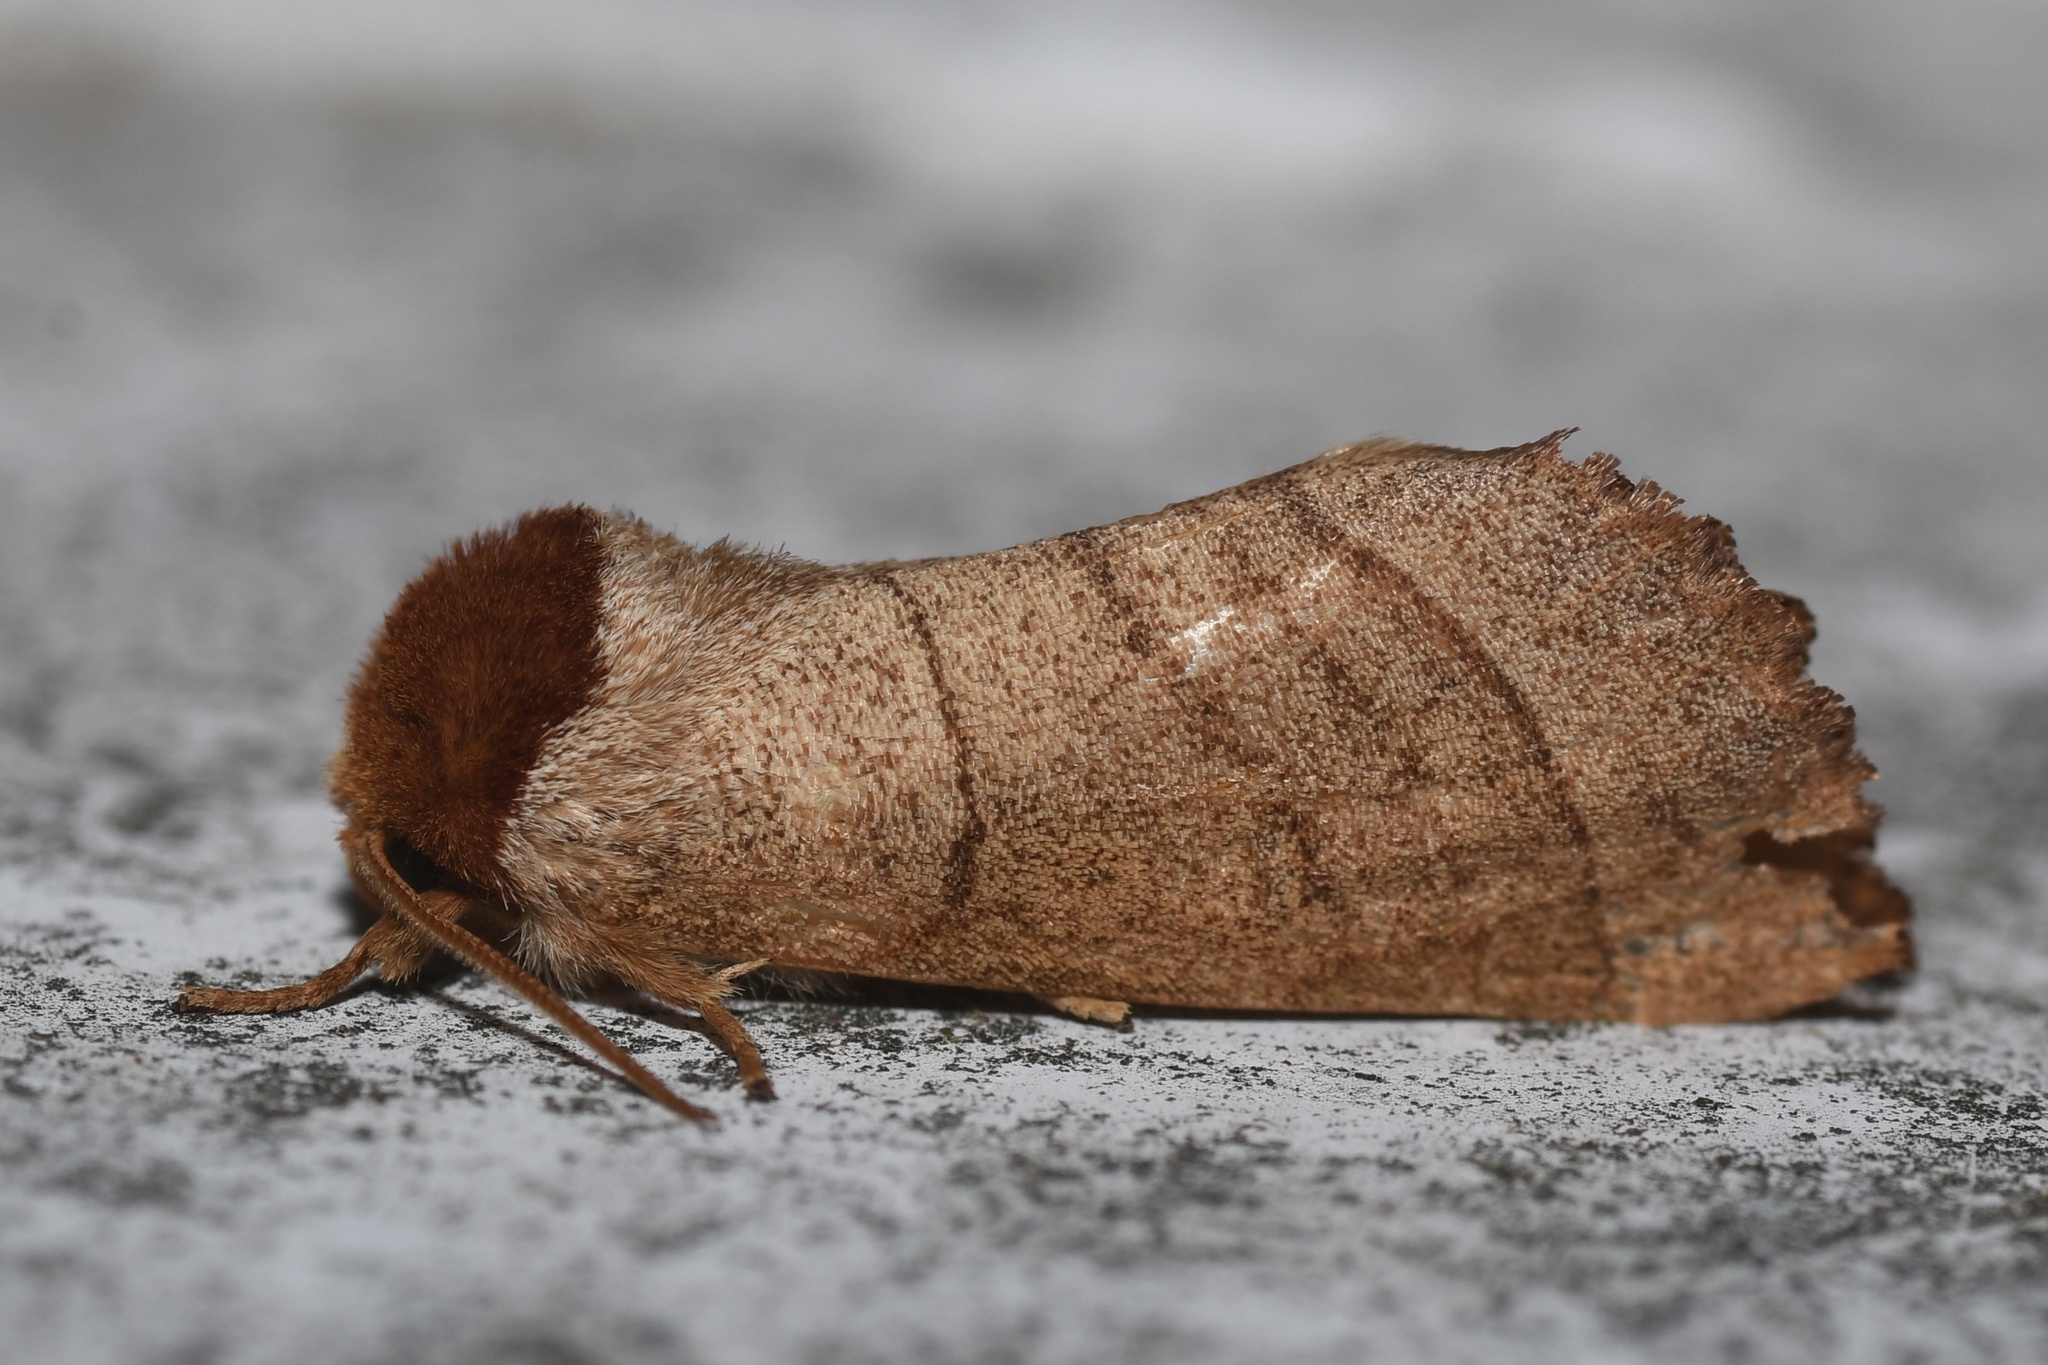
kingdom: Animalia
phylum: Arthropoda
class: Insecta
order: Lepidoptera
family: Notodontidae
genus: Datana
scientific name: Datana ministra
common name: Yellow-necked caterpillar moth
